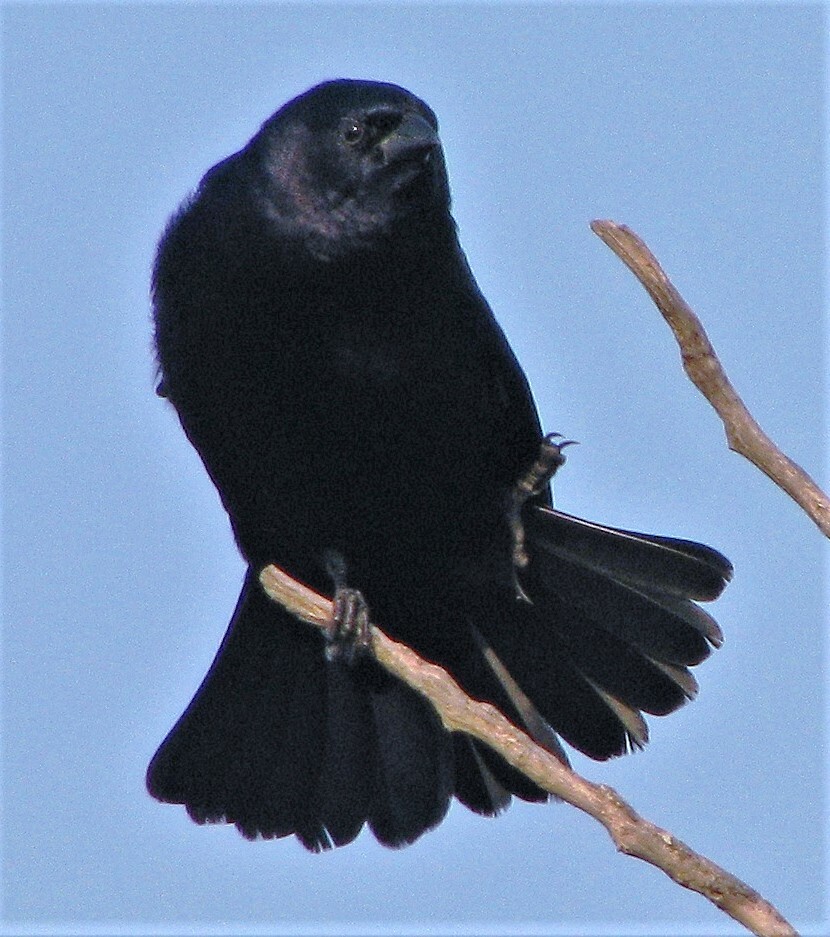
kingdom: Animalia
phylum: Chordata
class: Aves
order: Passeriformes
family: Icteridae
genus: Molothrus
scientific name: Molothrus bonariensis
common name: Shiny cowbird
